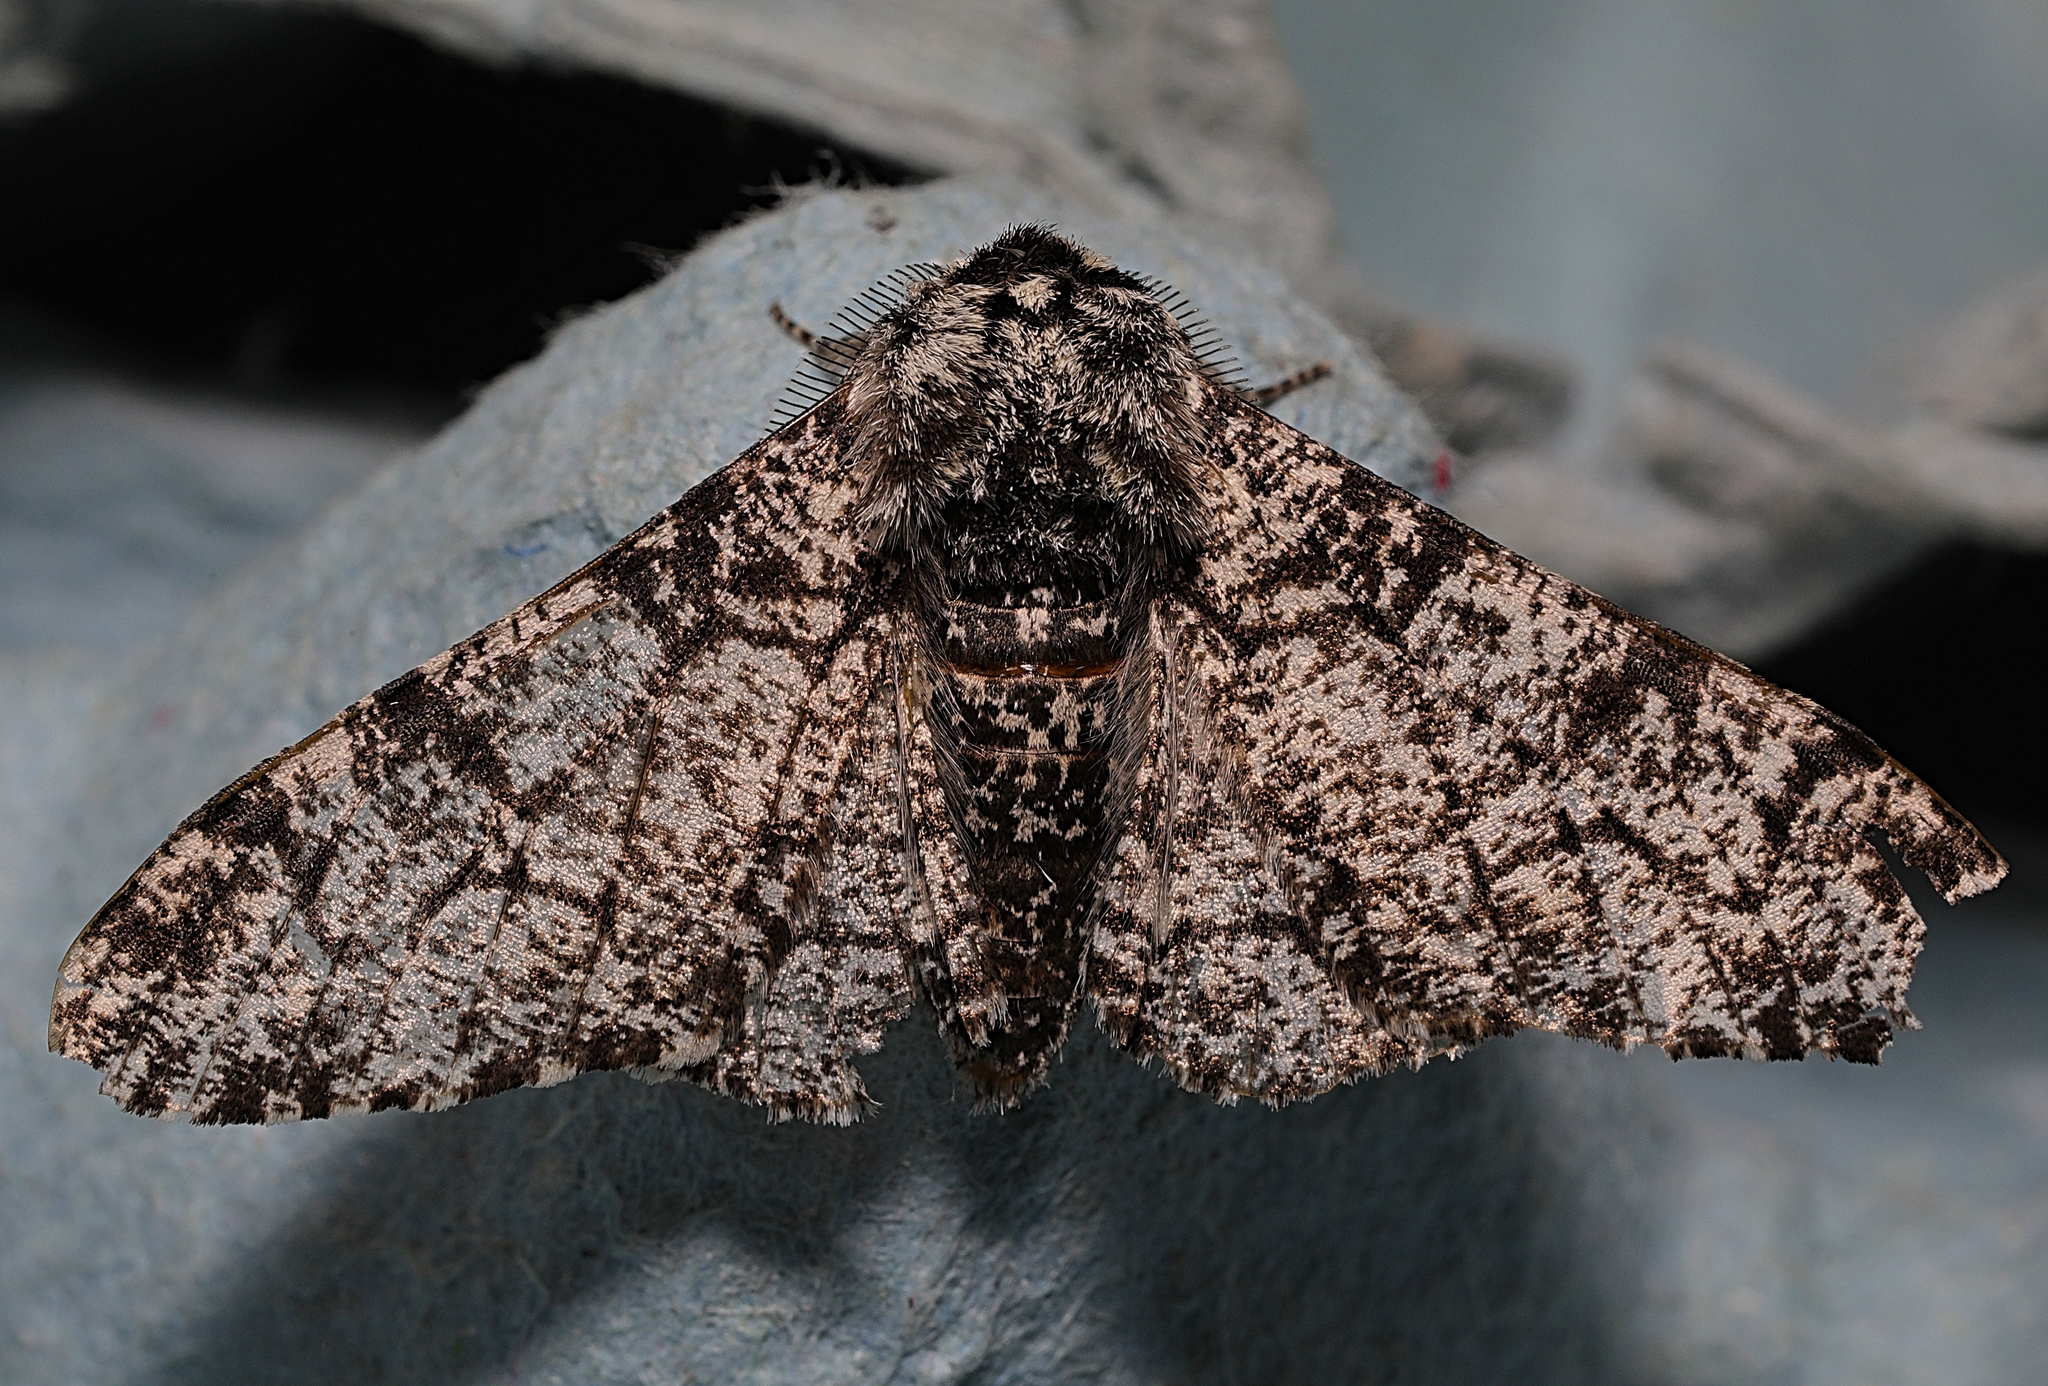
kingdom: Animalia
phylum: Arthropoda
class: Insecta
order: Lepidoptera
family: Geometridae
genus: Biston
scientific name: Biston betularia
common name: Peppered moth
